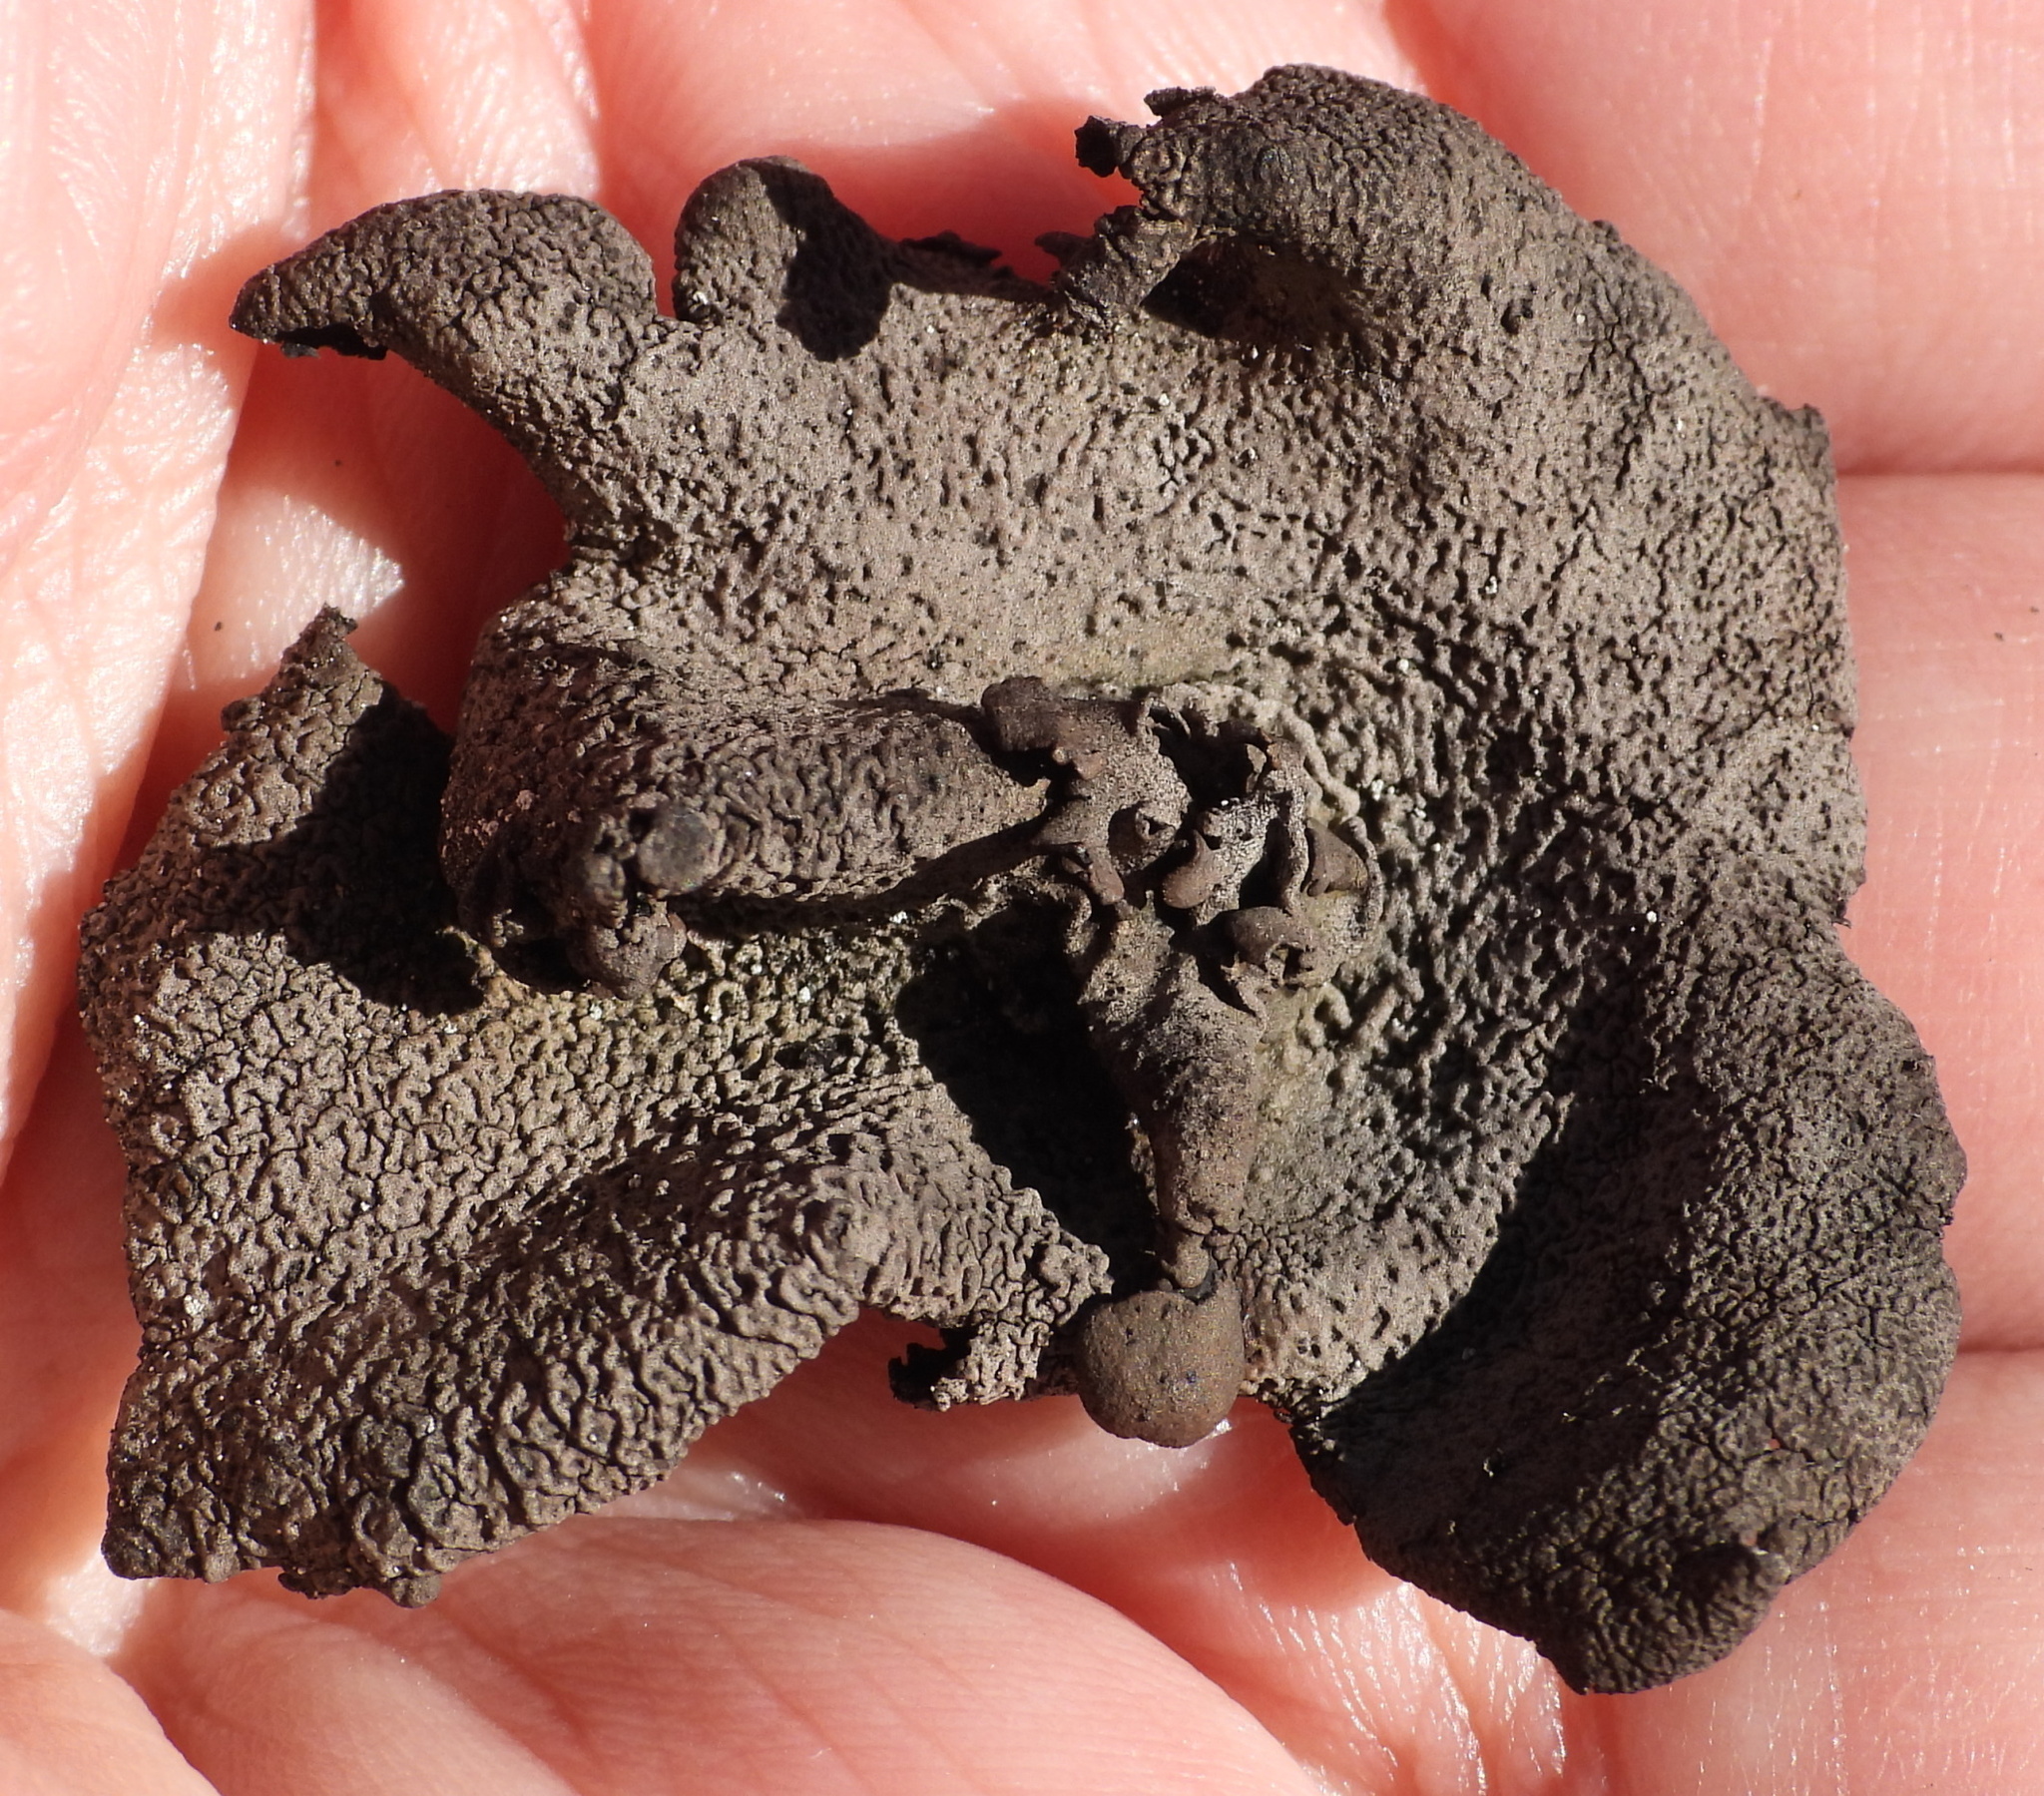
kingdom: Fungi
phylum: Ascomycota
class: Lecanoromycetes
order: Umbilicariales
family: Umbilicariaceae
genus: Umbilicaria
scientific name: Umbilicaria nylanderiana
